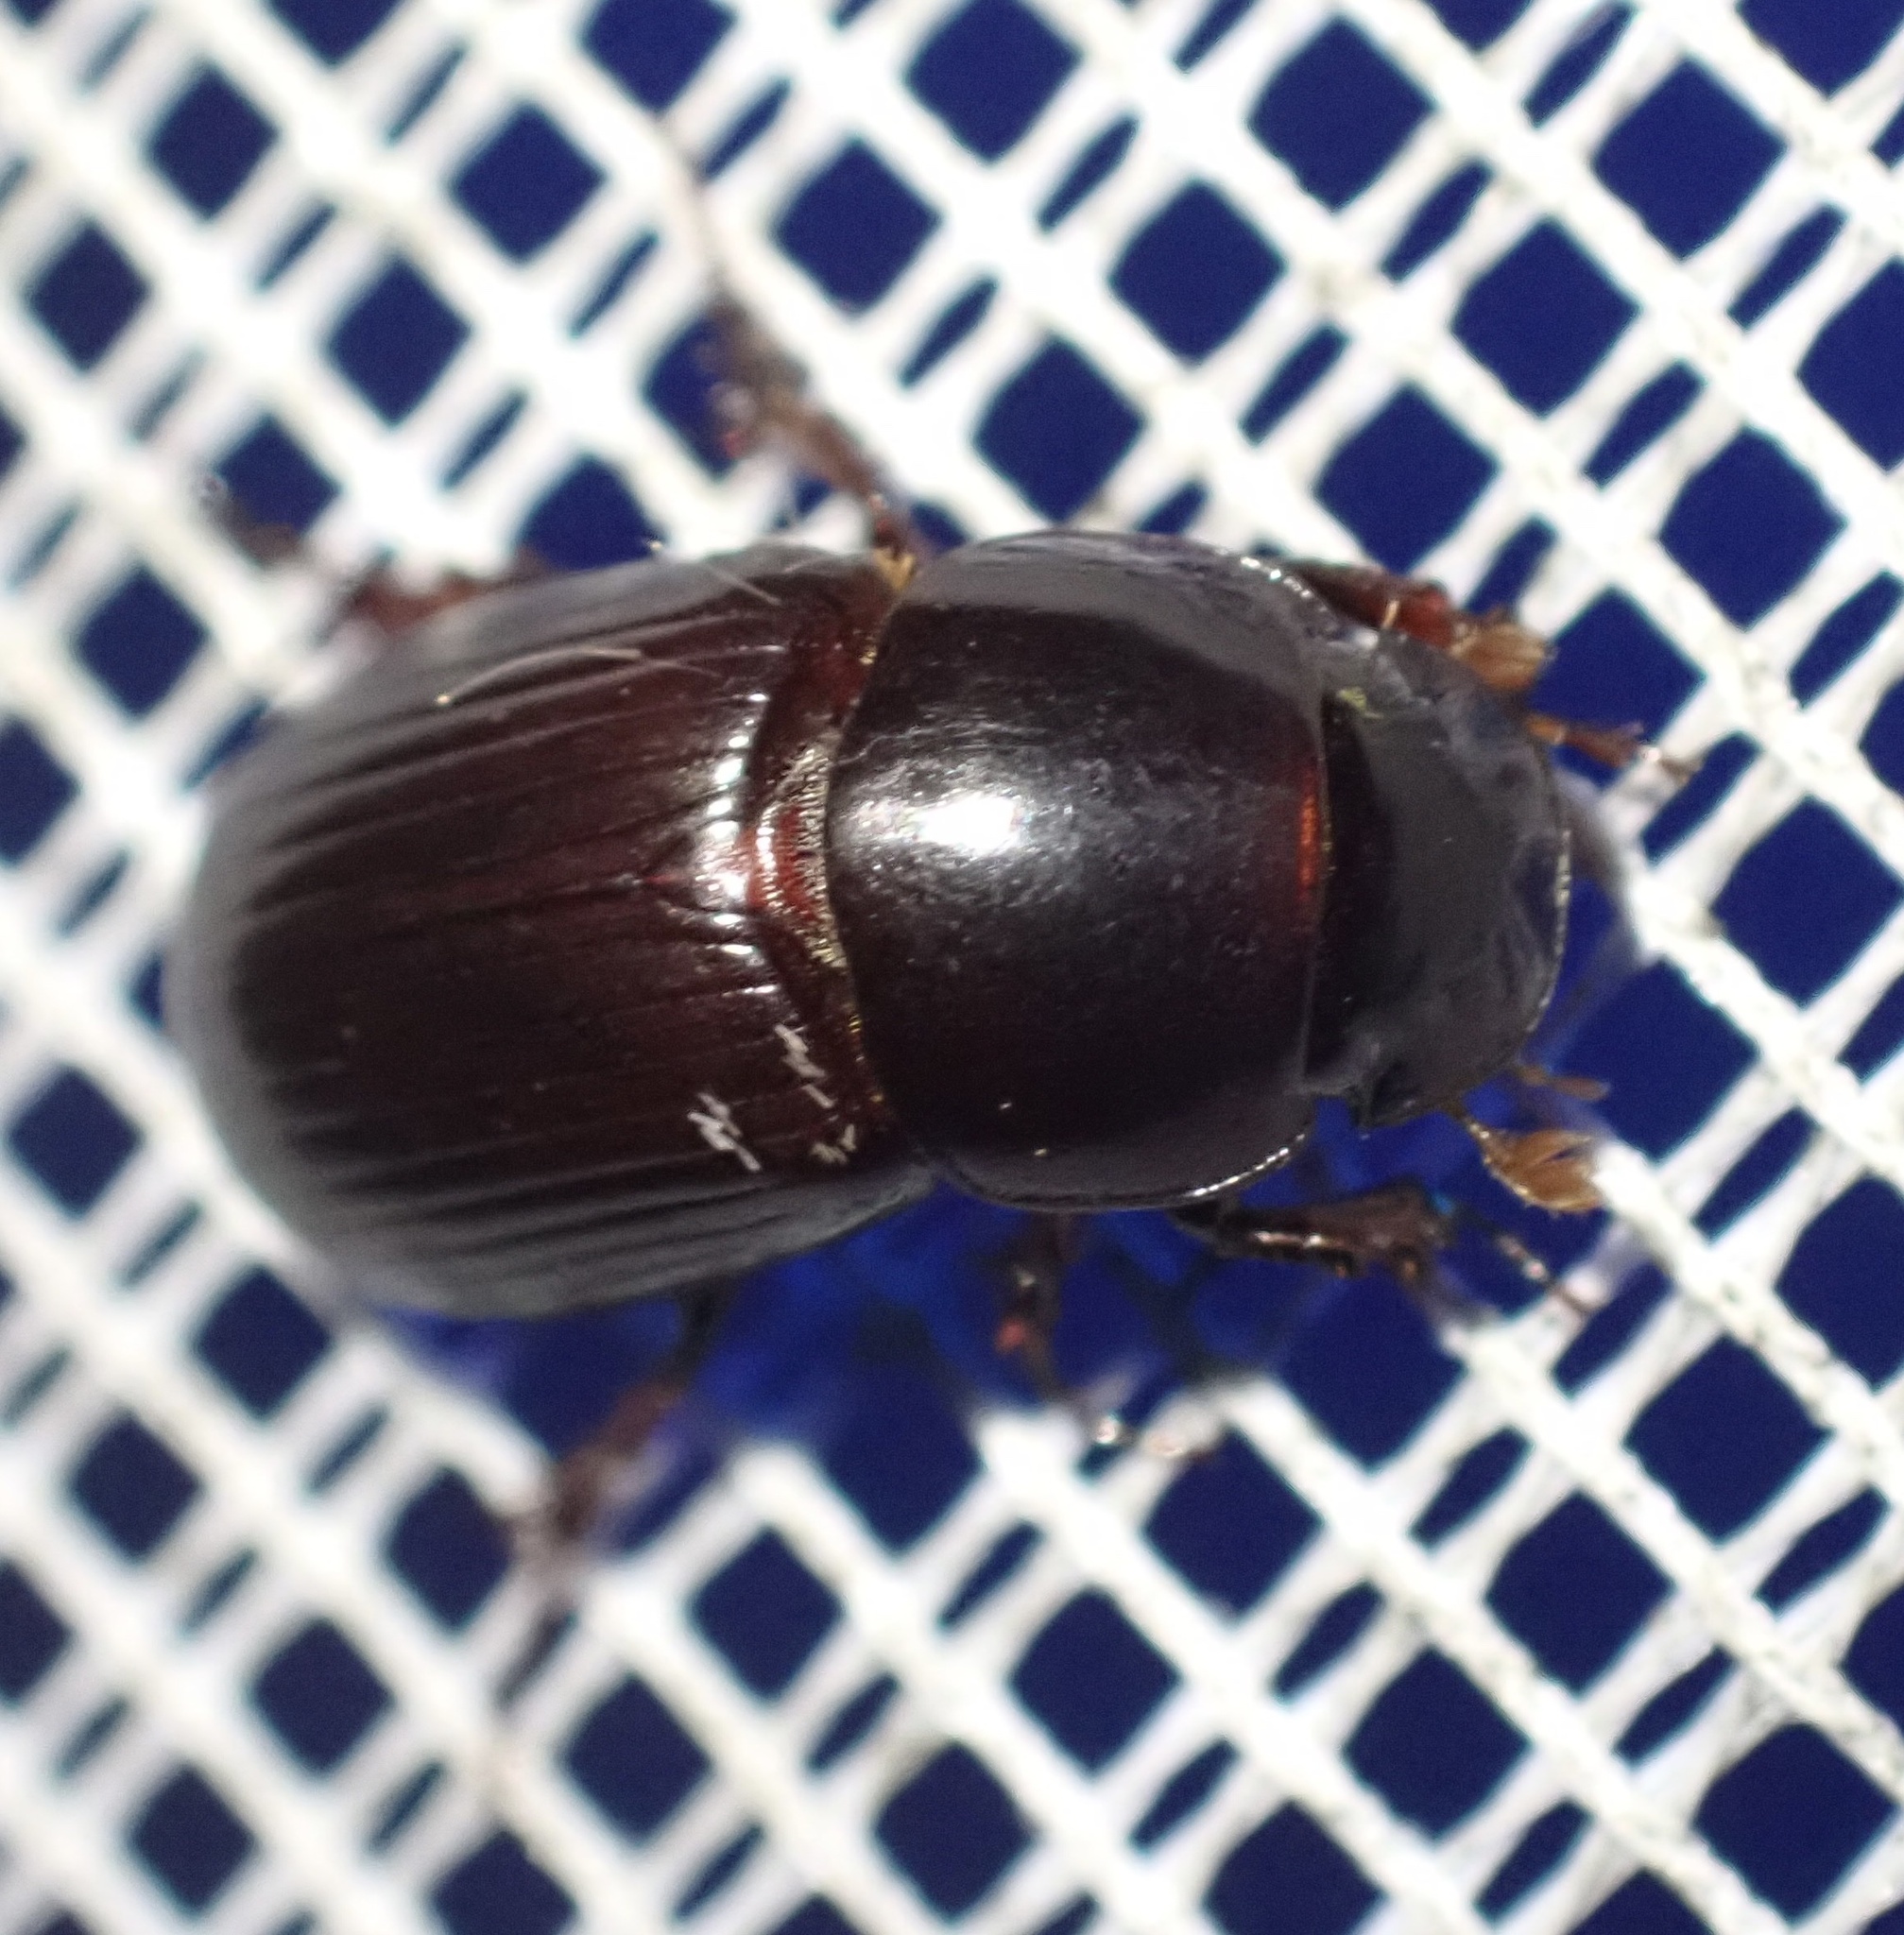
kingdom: Animalia
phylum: Arthropoda
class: Insecta
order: Coleoptera
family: Scarabaeidae
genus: Acrossus
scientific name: Acrossus rufipes
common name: Night-flying dung beetle
